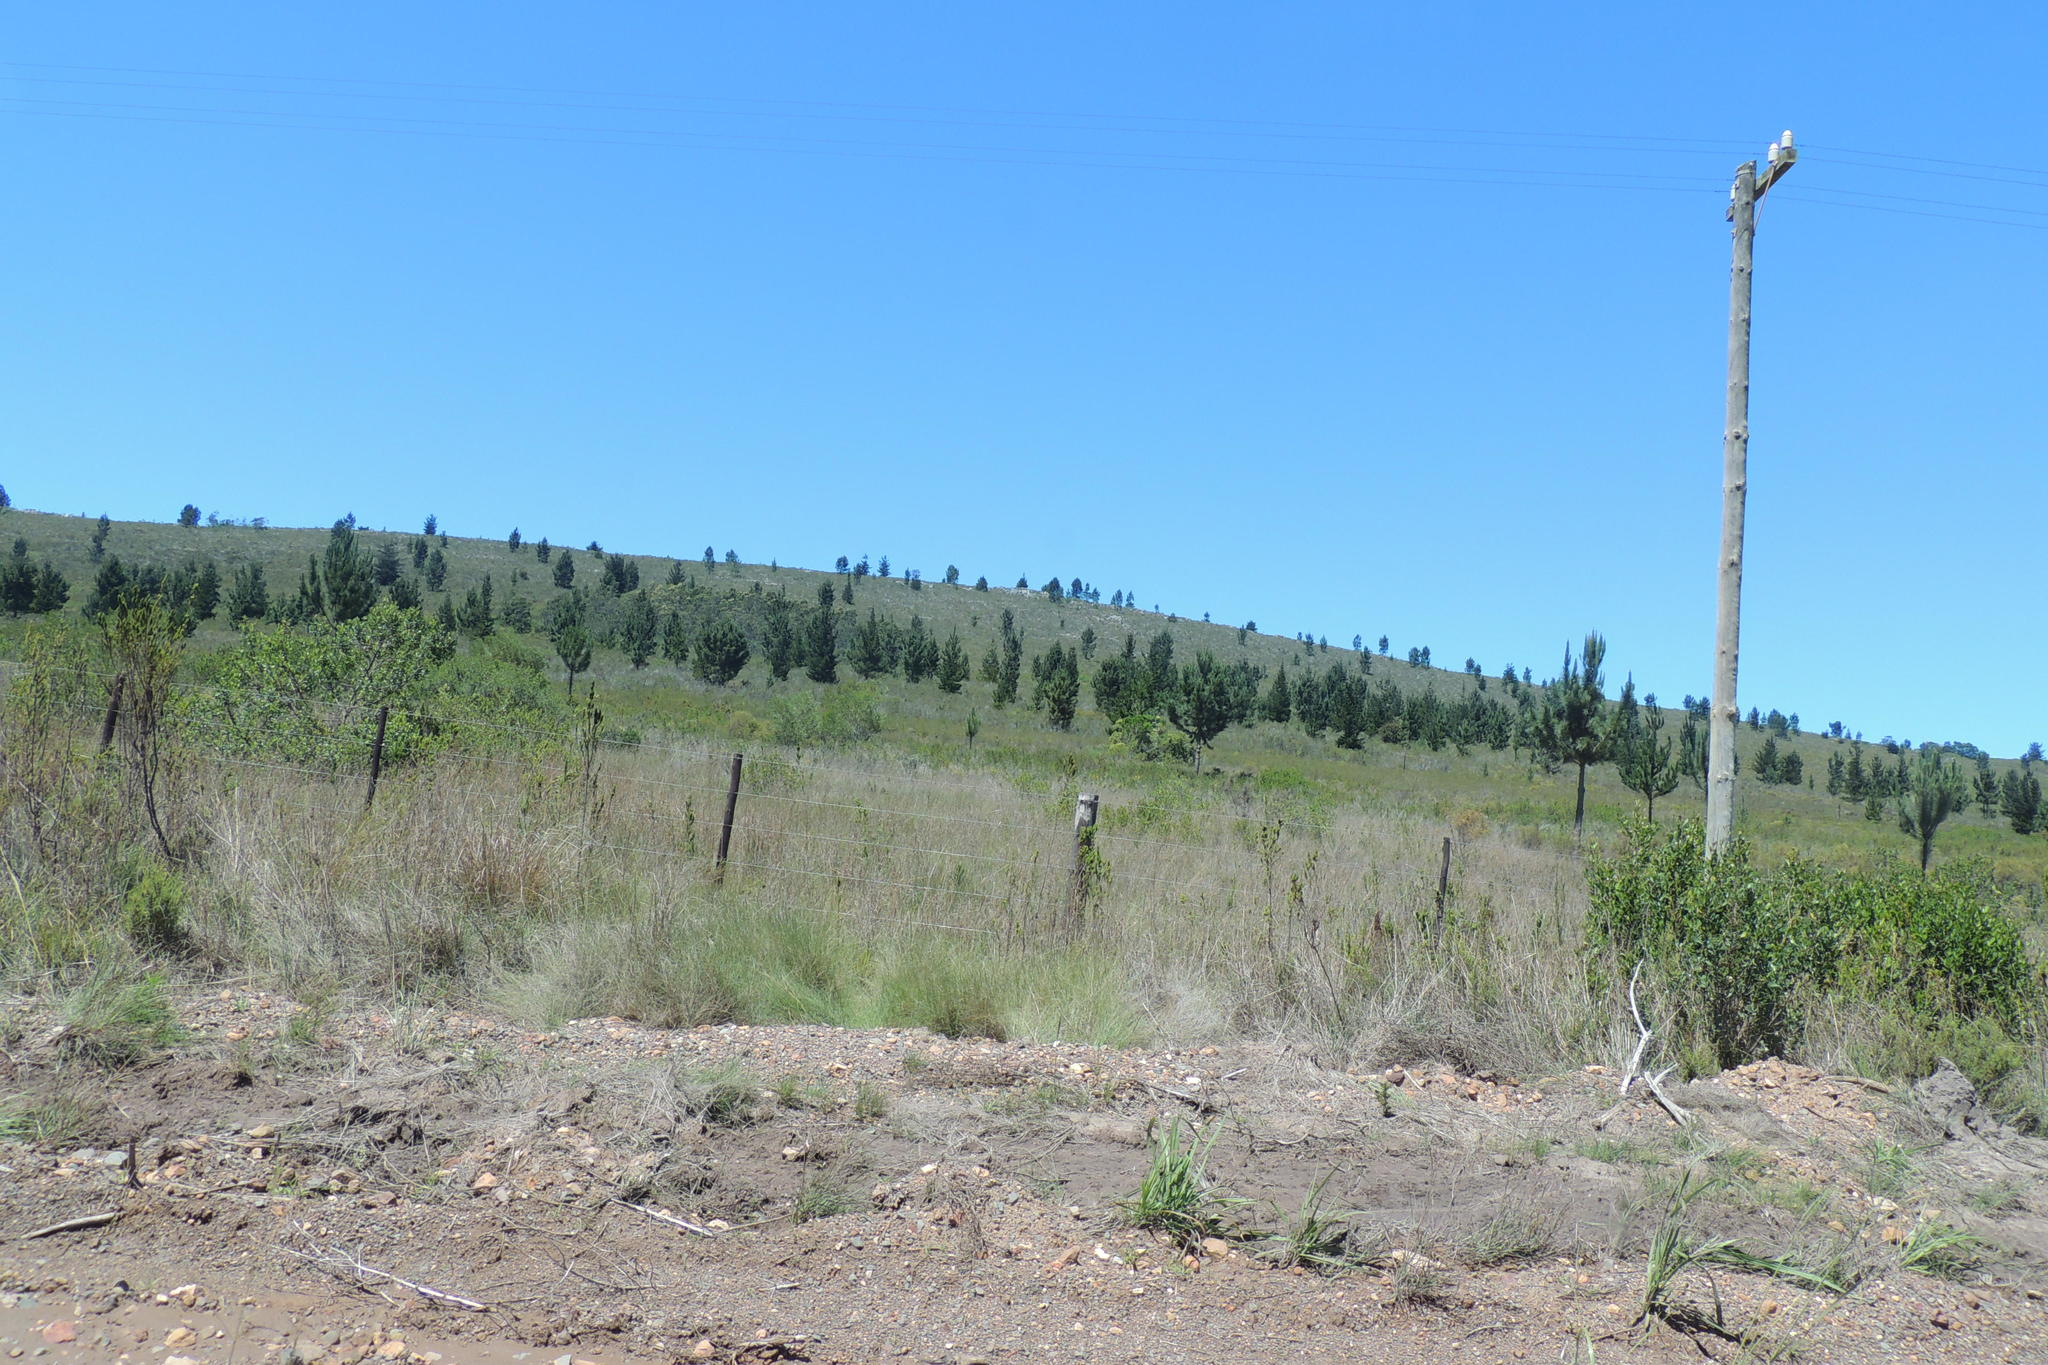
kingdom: Plantae
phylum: Tracheophyta
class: Pinopsida
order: Pinales
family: Pinaceae
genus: Pinus
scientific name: Pinus pinaster
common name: Maritime pine
